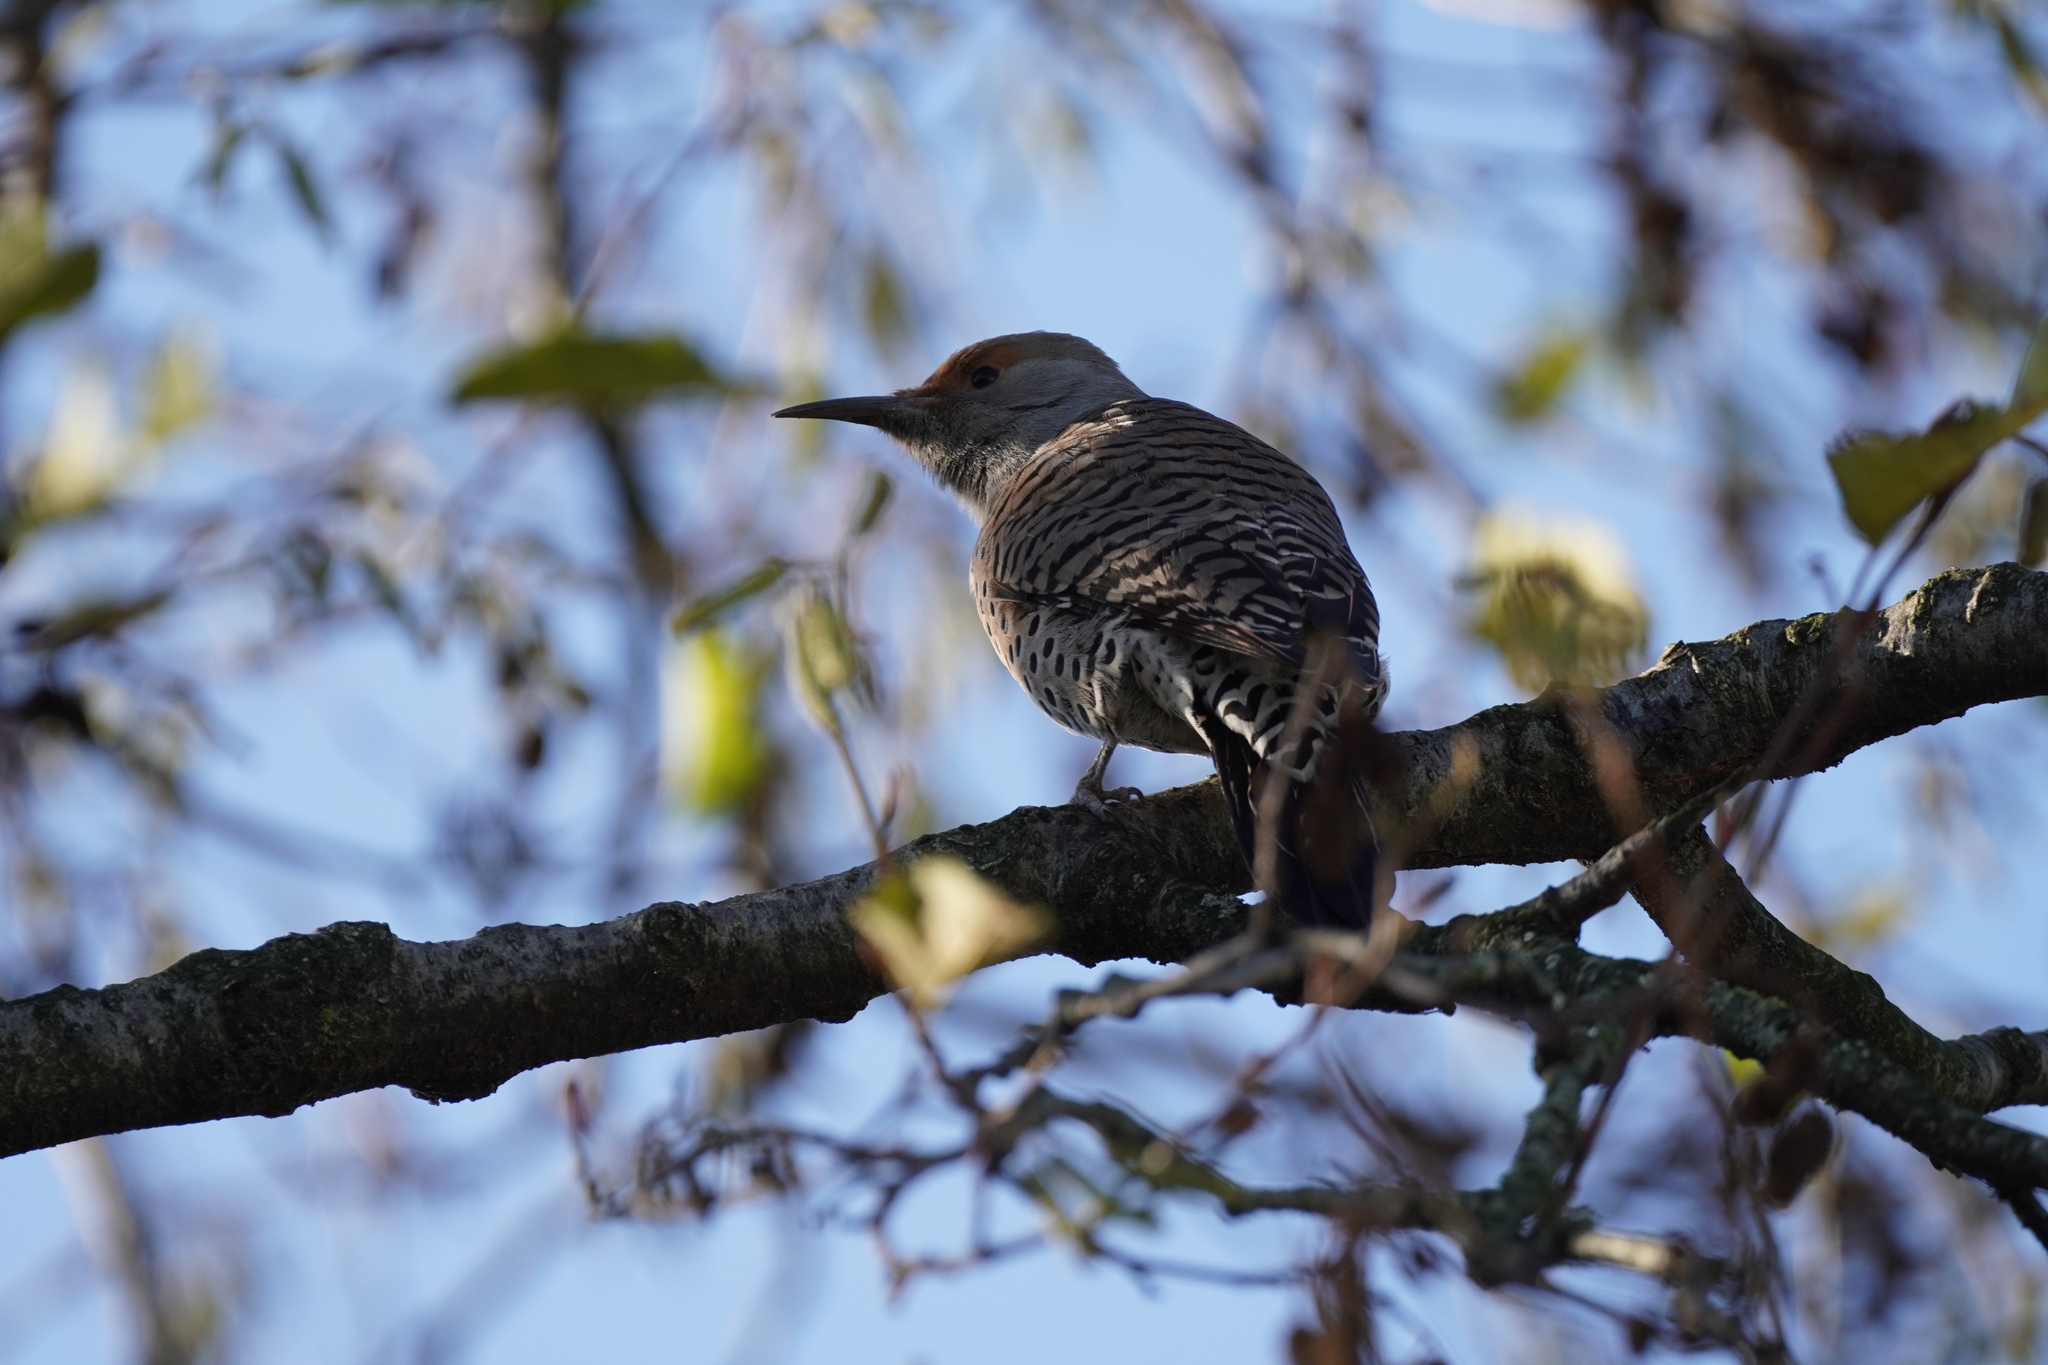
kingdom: Animalia
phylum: Chordata
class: Aves
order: Piciformes
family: Picidae
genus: Colaptes
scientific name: Colaptes auratus
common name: Northern flicker
